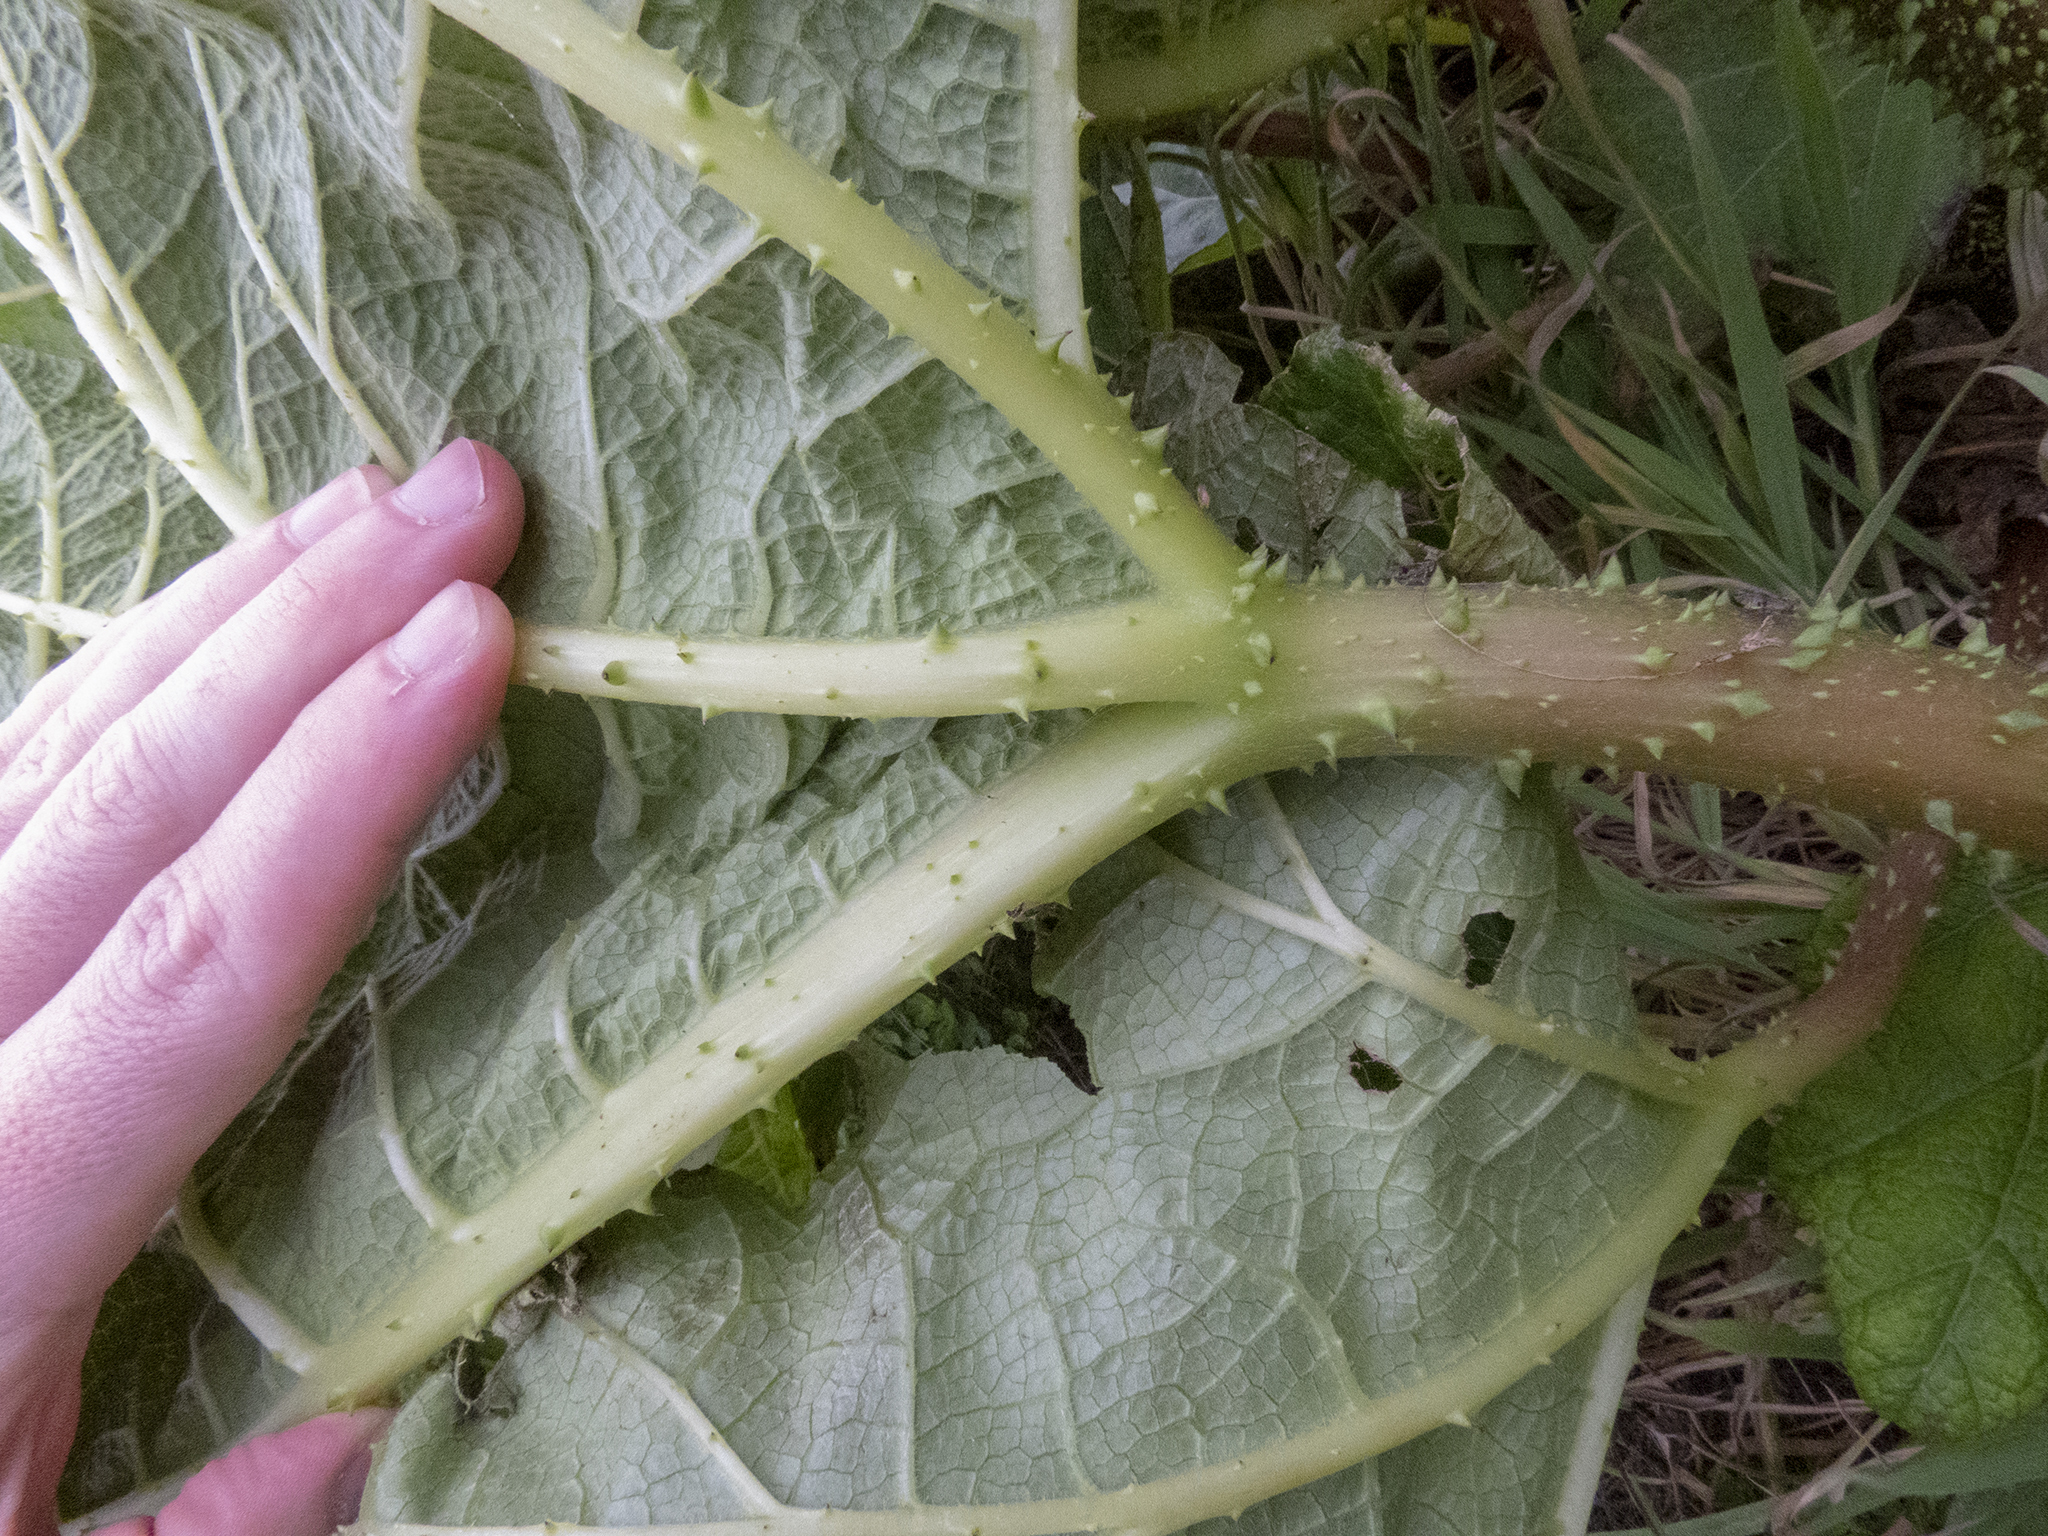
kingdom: Plantae
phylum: Tracheophyta
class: Magnoliopsida
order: Gunnerales
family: Gunneraceae
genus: Gunnera
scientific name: Gunnera tinctoria
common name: Giant-rhubarb
